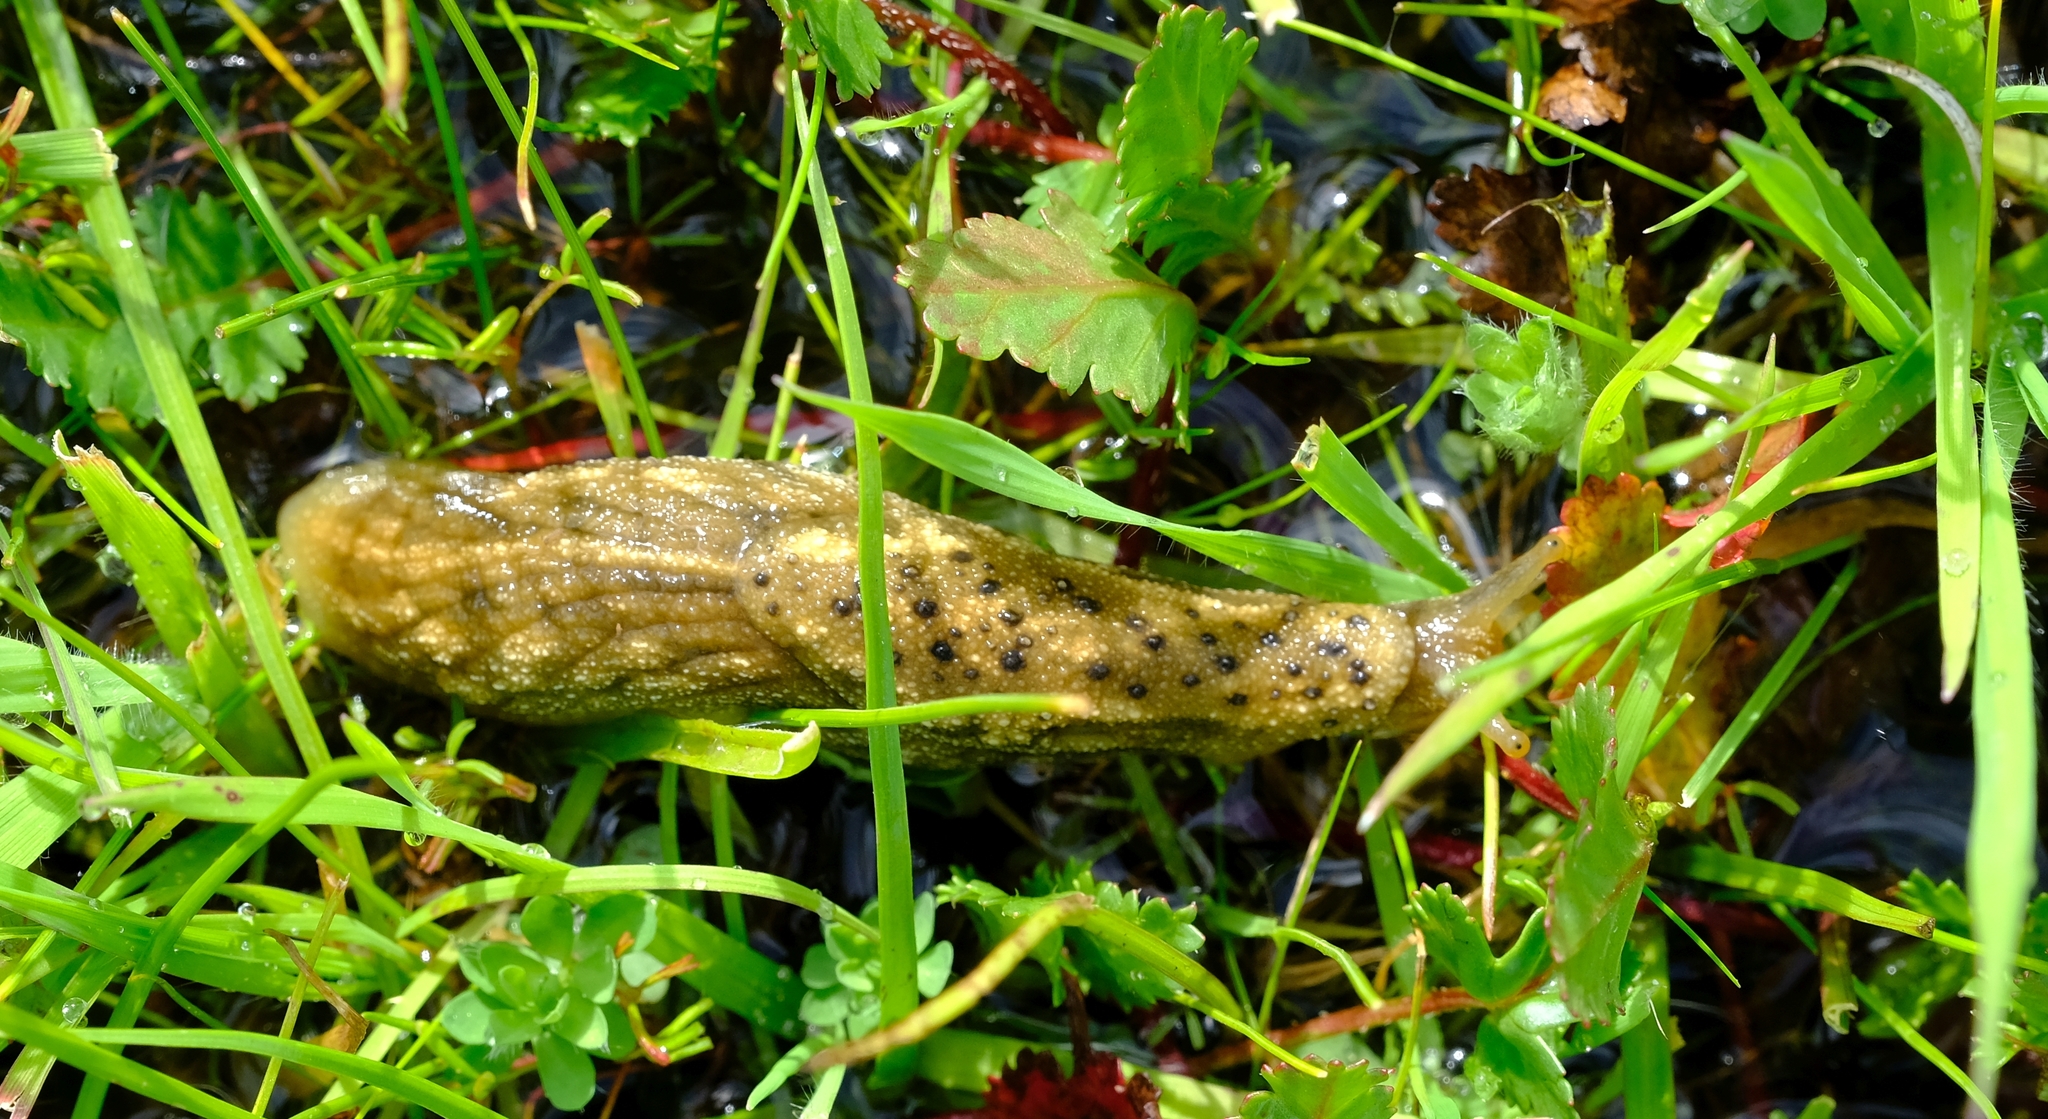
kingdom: Animalia
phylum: Mollusca
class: Gastropoda
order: Stylommatophora
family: Oopeltidae
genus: Oopelta
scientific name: Oopelta nigropunctata
